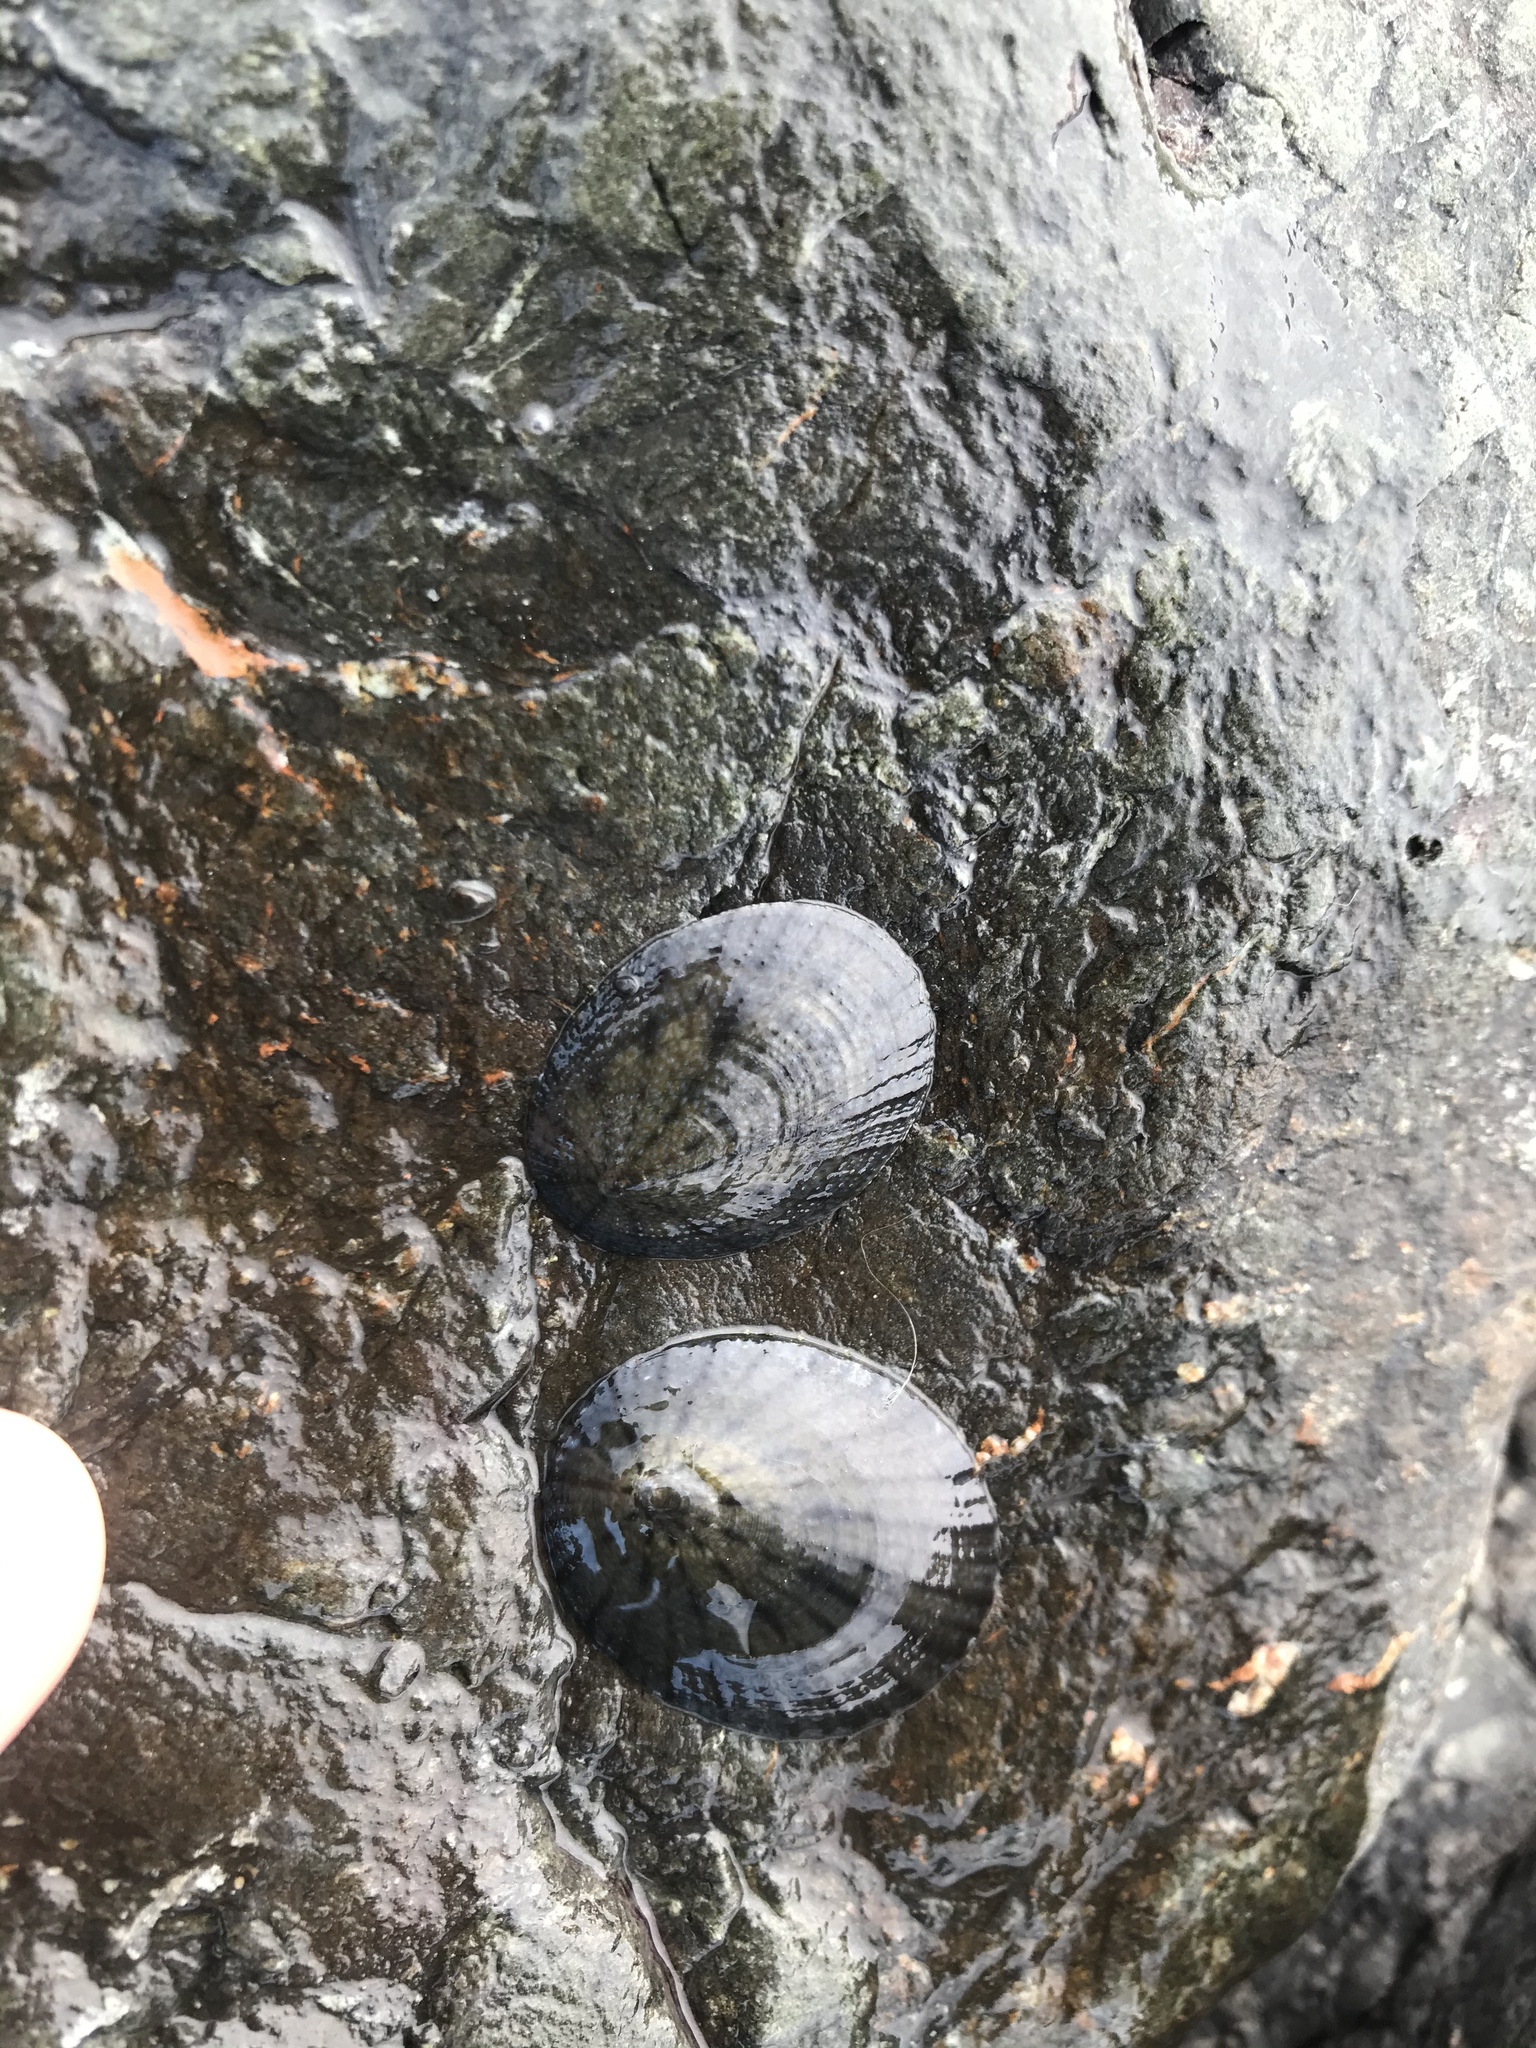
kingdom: Animalia
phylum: Mollusca
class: Gastropoda
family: Nacellidae
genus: Cellana
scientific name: Cellana radians
